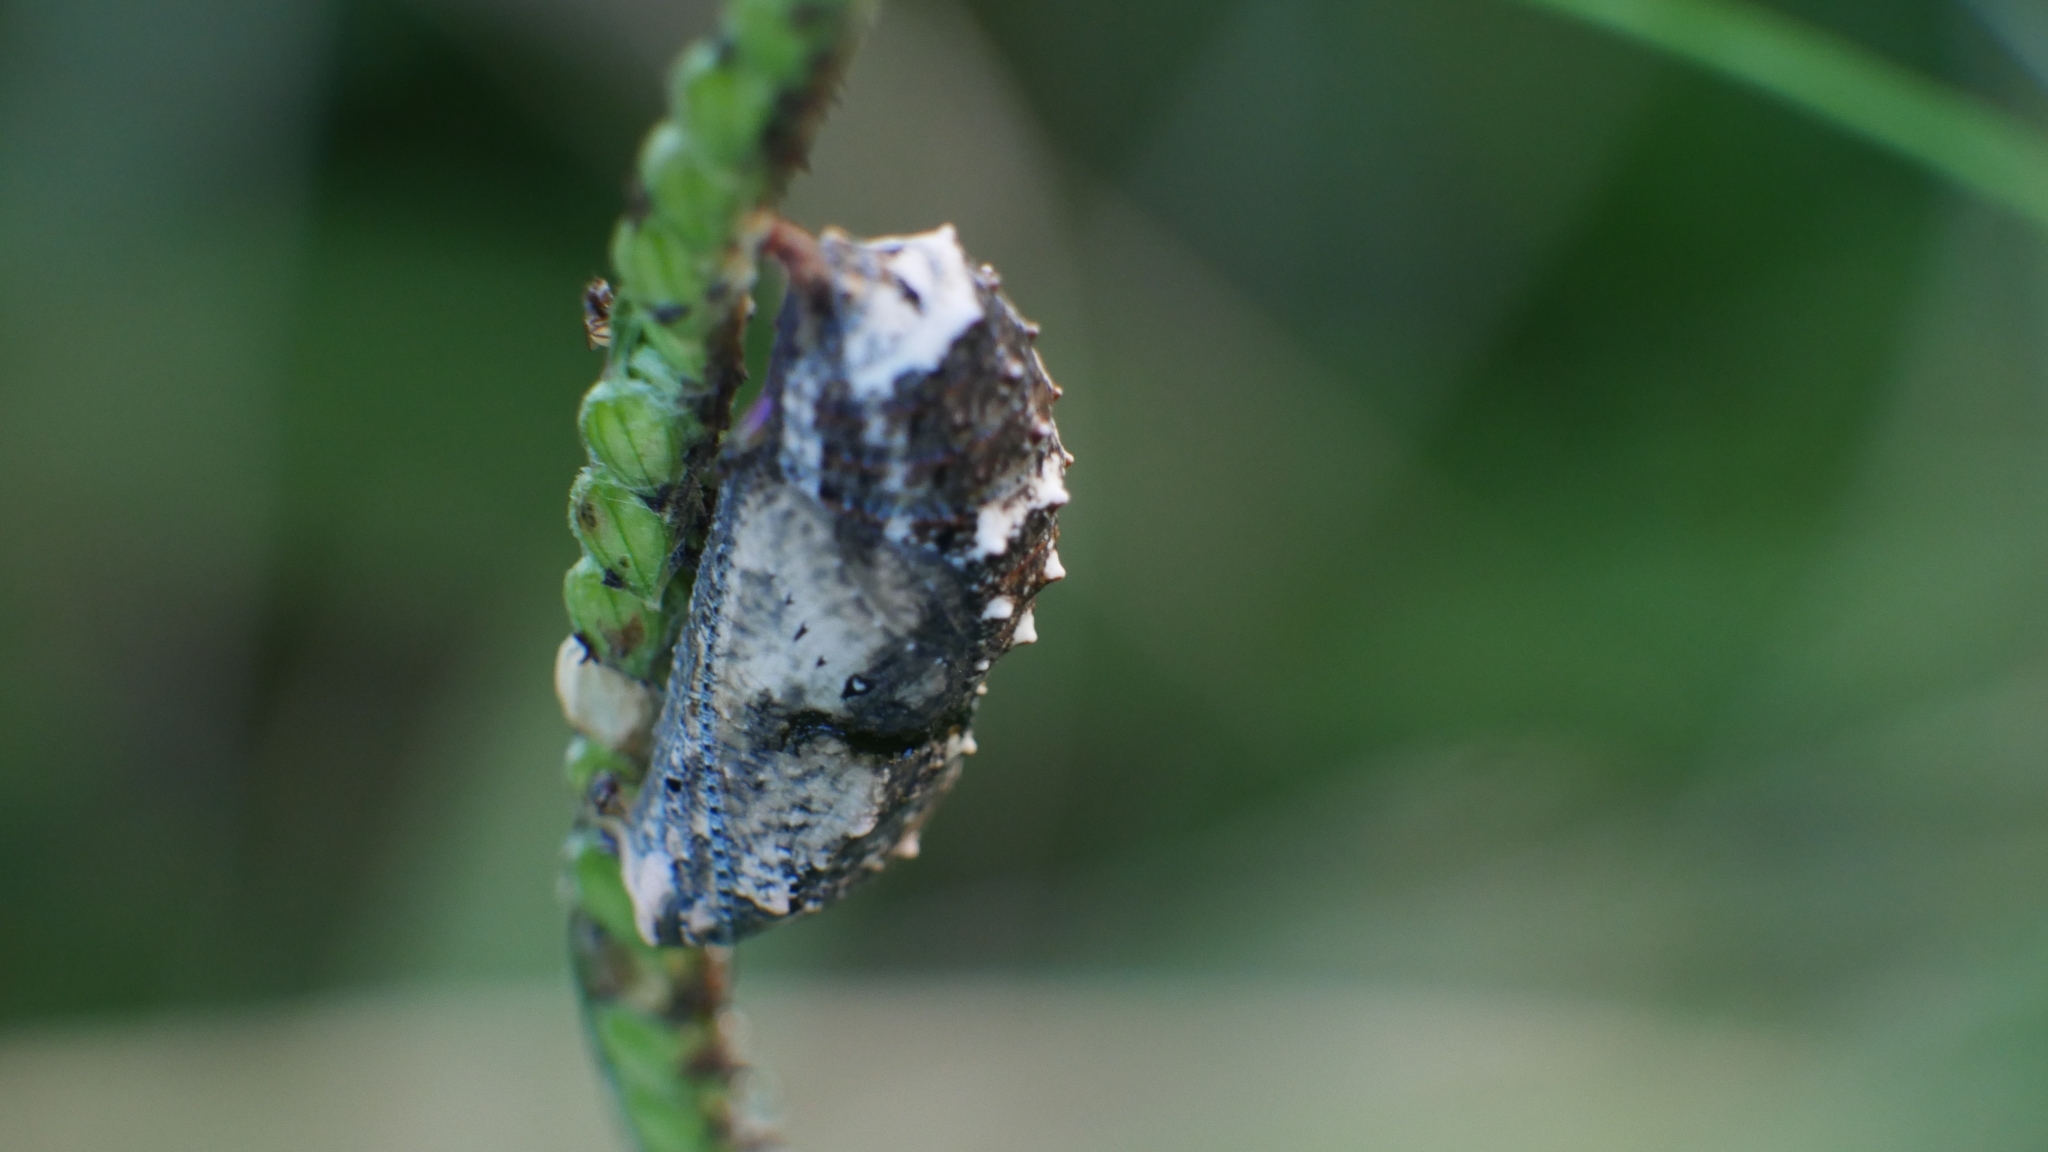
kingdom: Animalia
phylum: Arthropoda
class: Insecta
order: Lepidoptera
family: Nymphalidae
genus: Junonia
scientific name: Junonia coenia
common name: Common buckeye
